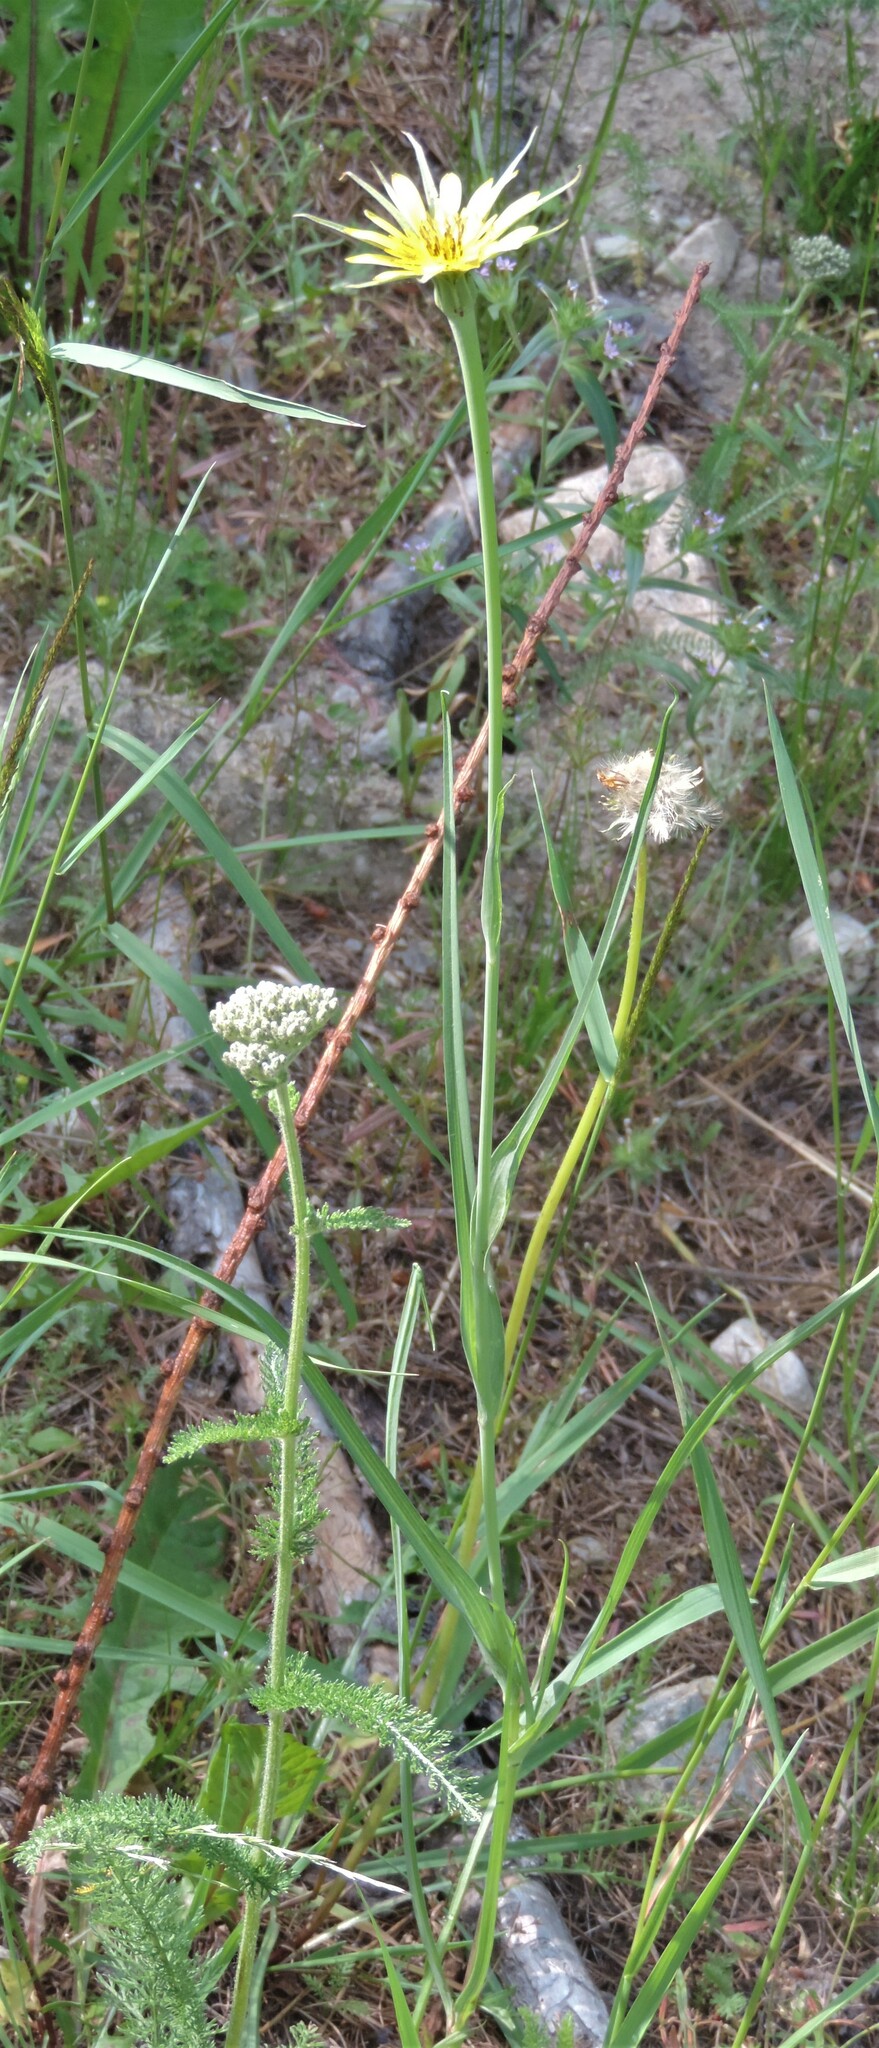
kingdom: Plantae
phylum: Tracheophyta
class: Magnoliopsida
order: Asterales
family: Asteraceae
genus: Tragopogon
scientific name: Tragopogon dubius
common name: Yellow salsify
